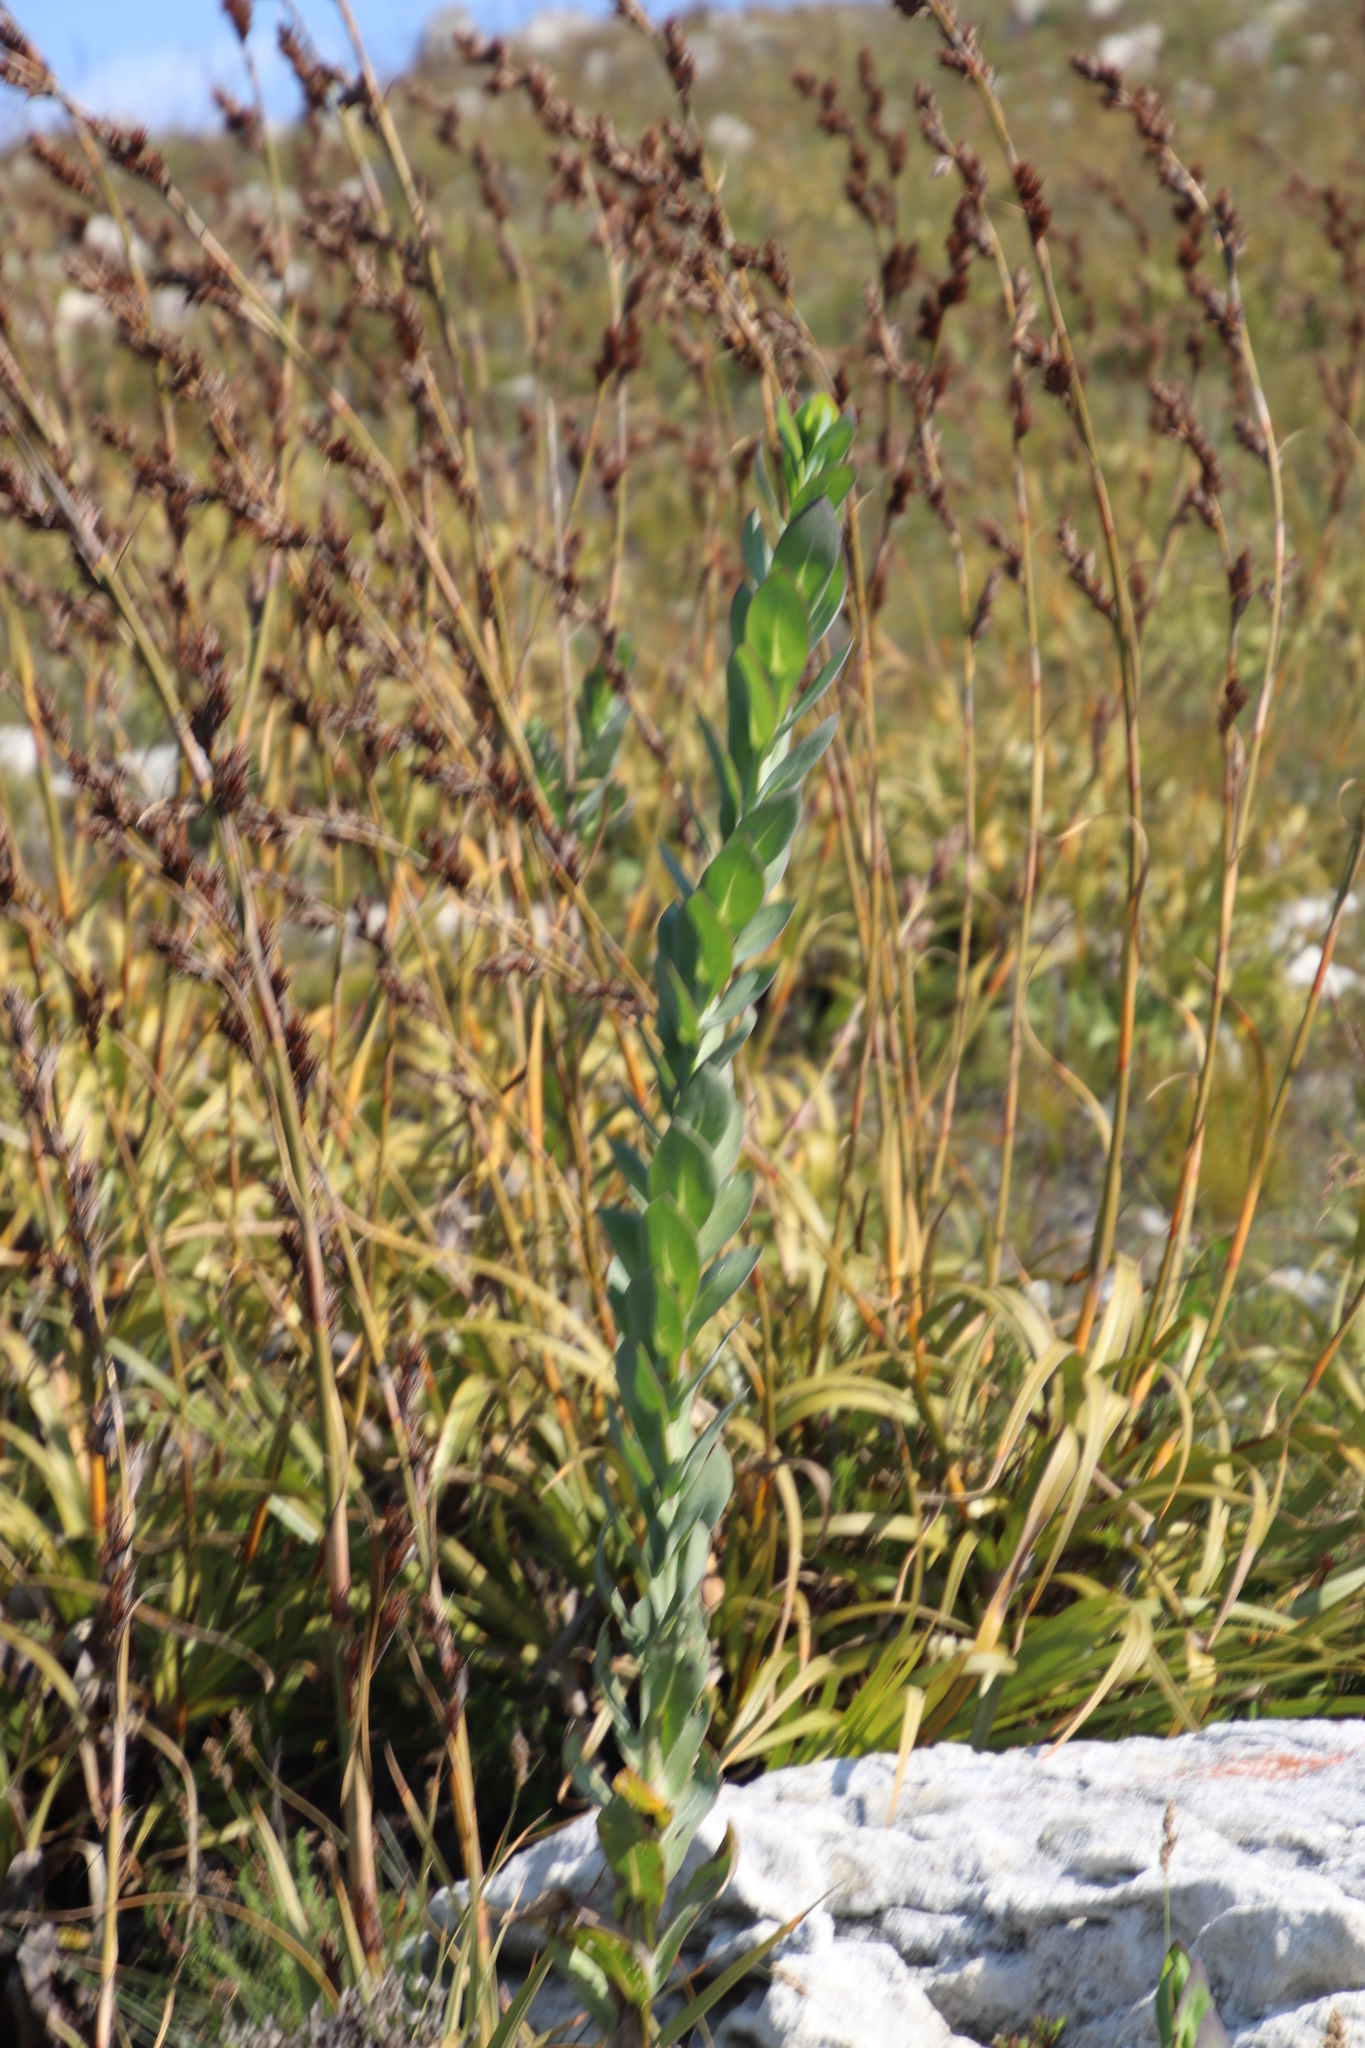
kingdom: Plantae
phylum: Tracheophyta
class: Magnoliopsida
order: Asterales
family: Asteraceae
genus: Othonna
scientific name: Othonna quinquedentata
